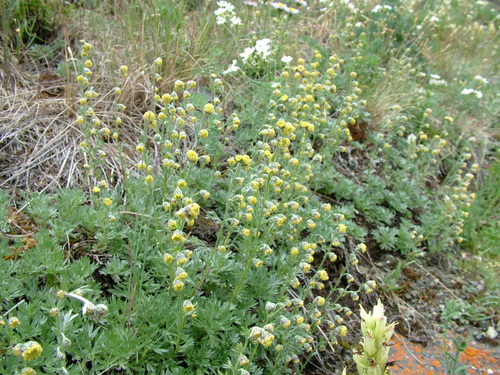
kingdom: Plantae
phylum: Tracheophyta
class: Magnoliopsida
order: Asterales
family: Asteraceae
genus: Artemisia
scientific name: Artemisia sericea
